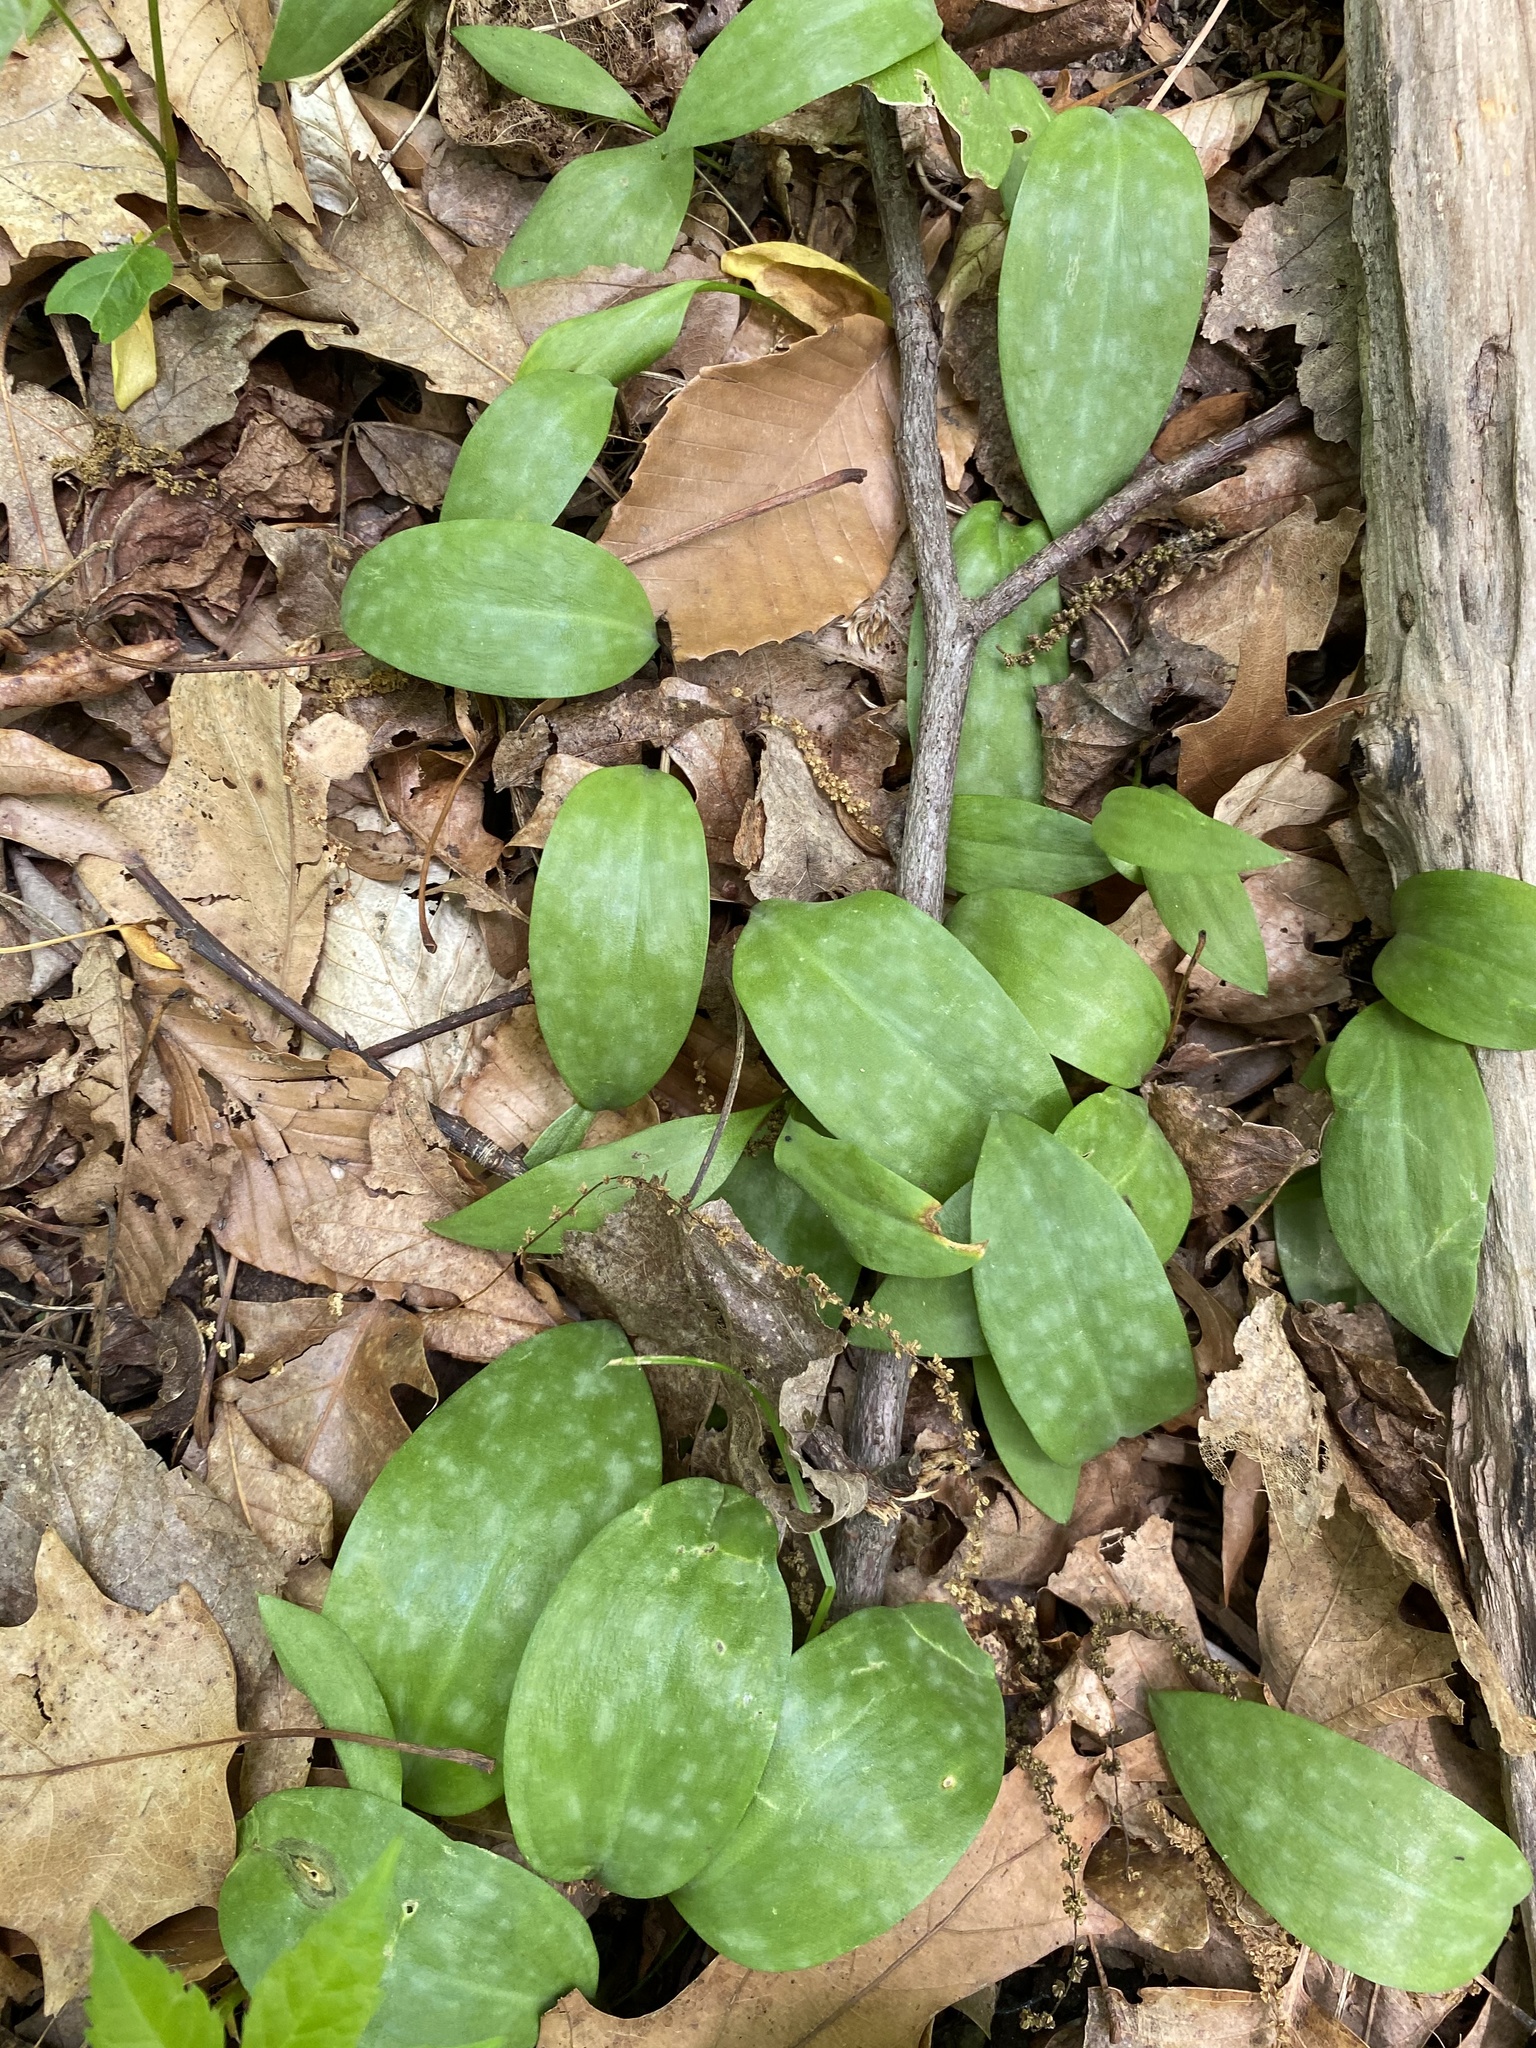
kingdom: Plantae
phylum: Tracheophyta
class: Liliopsida
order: Liliales
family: Liliaceae
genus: Erythronium
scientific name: Erythronium americanum
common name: Yellow adder's-tongue
